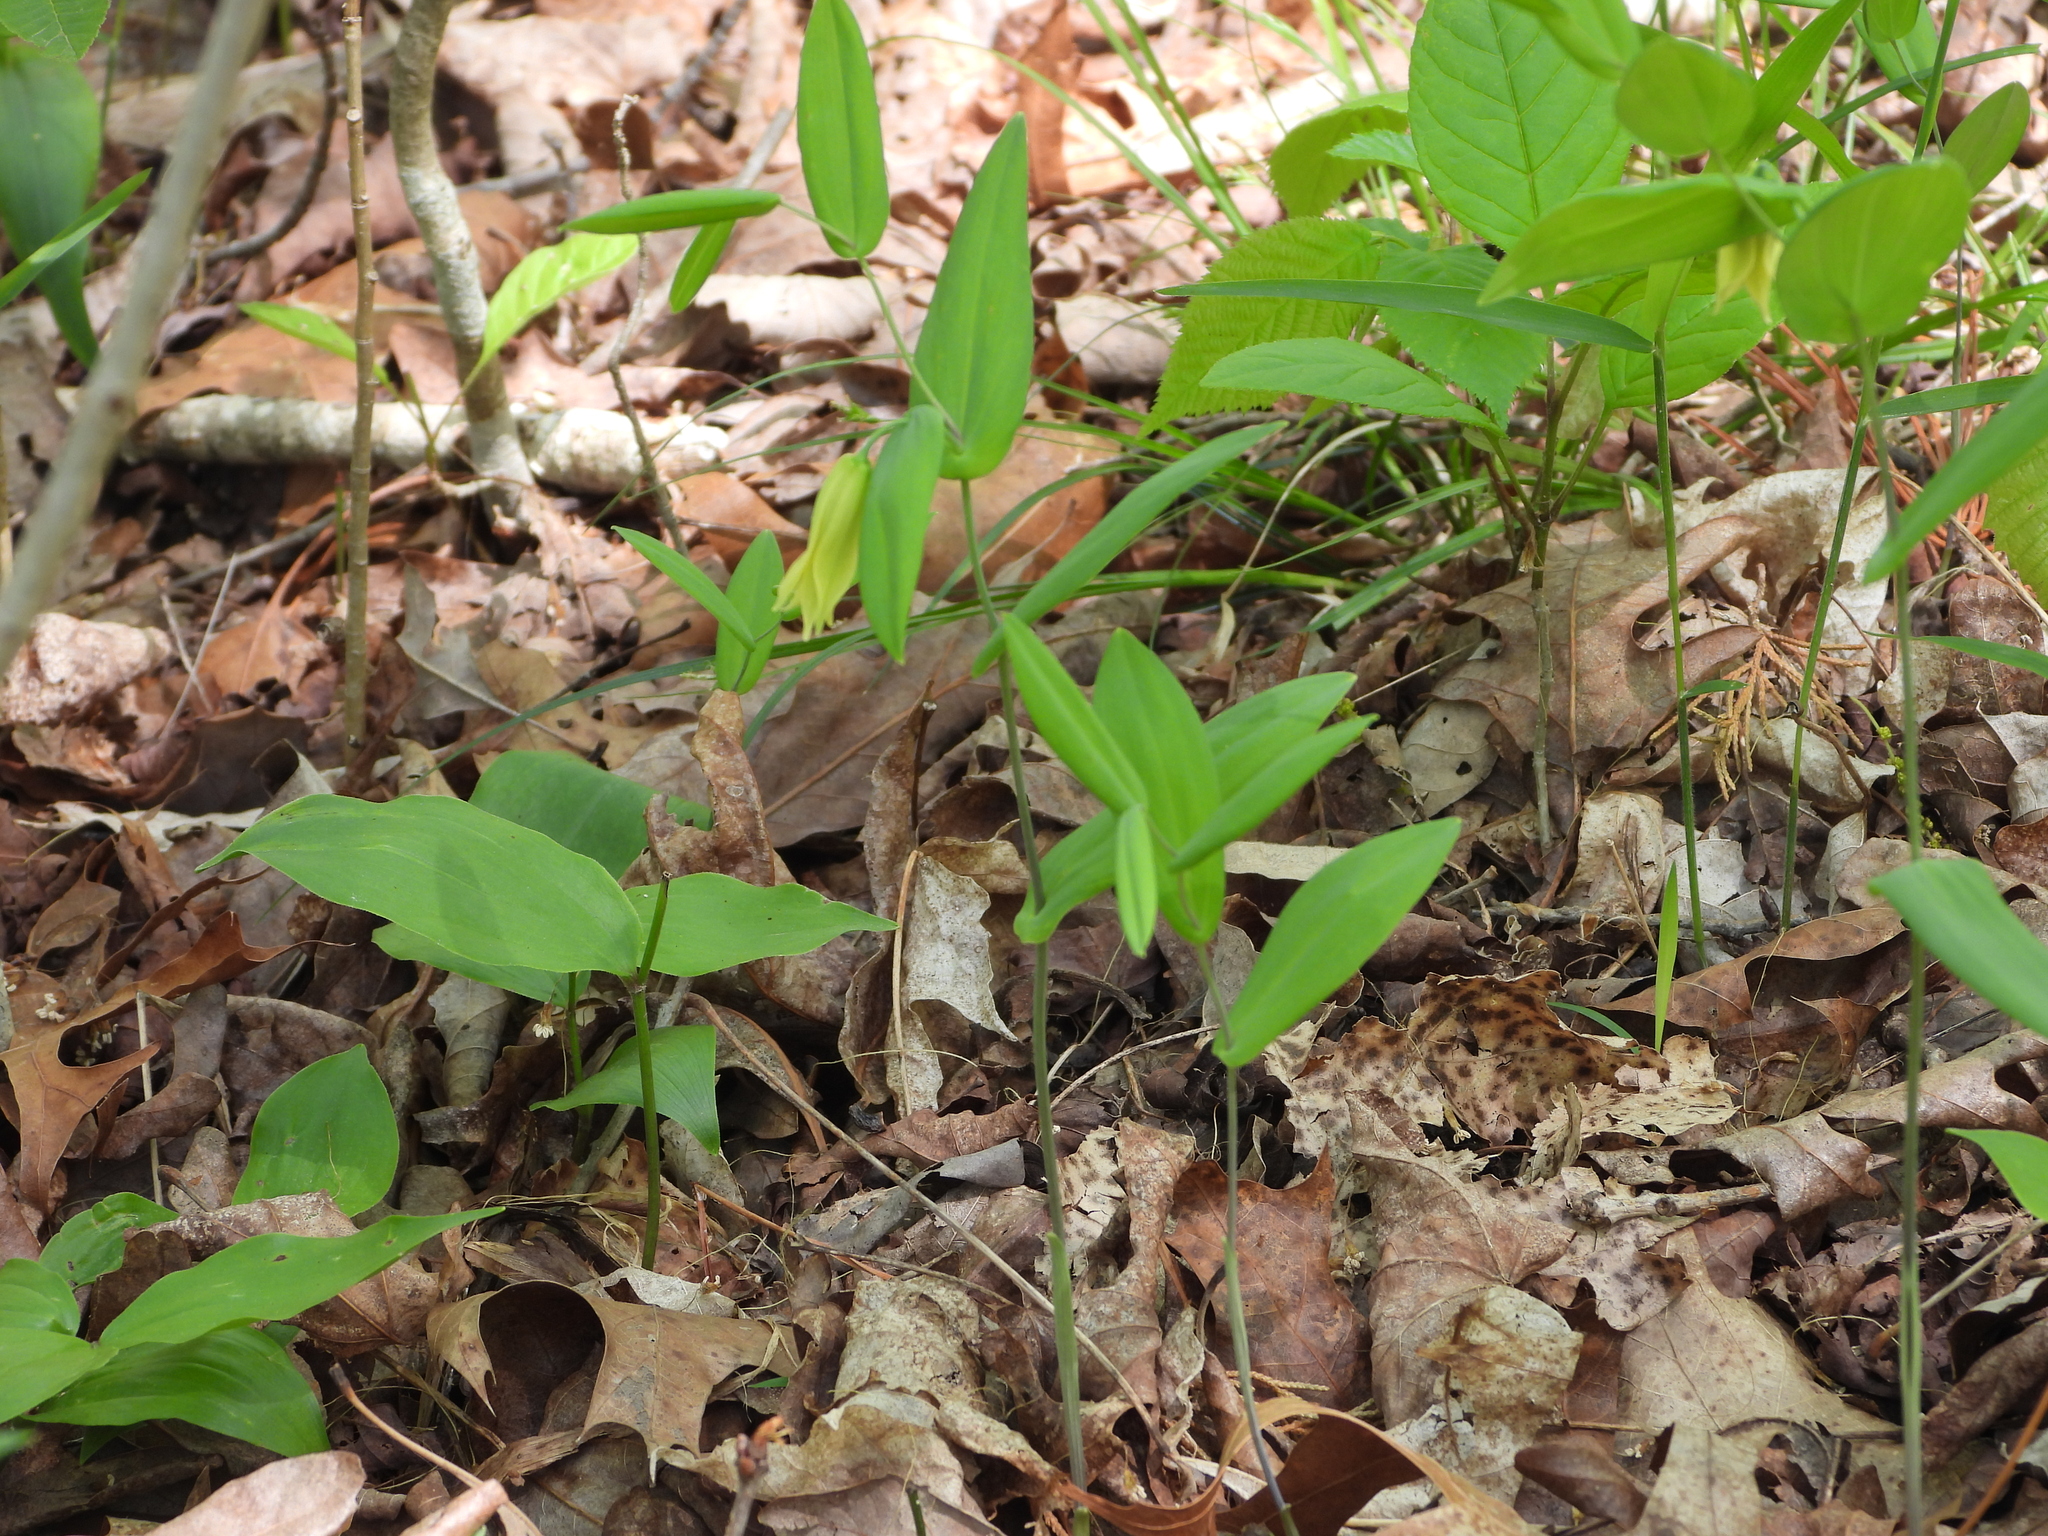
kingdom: Plantae
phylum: Tracheophyta
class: Liliopsida
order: Liliales
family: Colchicaceae
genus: Uvularia
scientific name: Uvularia perfoliata
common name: Perfoliate bellwort
